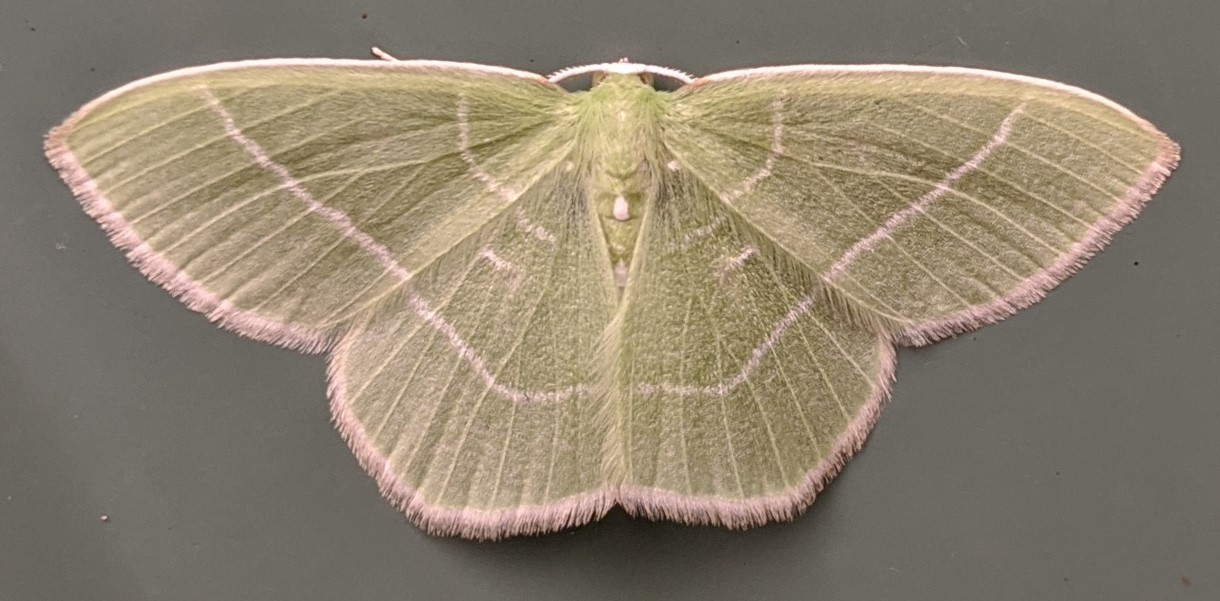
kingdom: Animalia
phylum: Arthropoda
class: Insecta
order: Lepidoptera
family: Geometridae
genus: Nemoria
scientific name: Nemoria mimosaria
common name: White-fringed emerald
